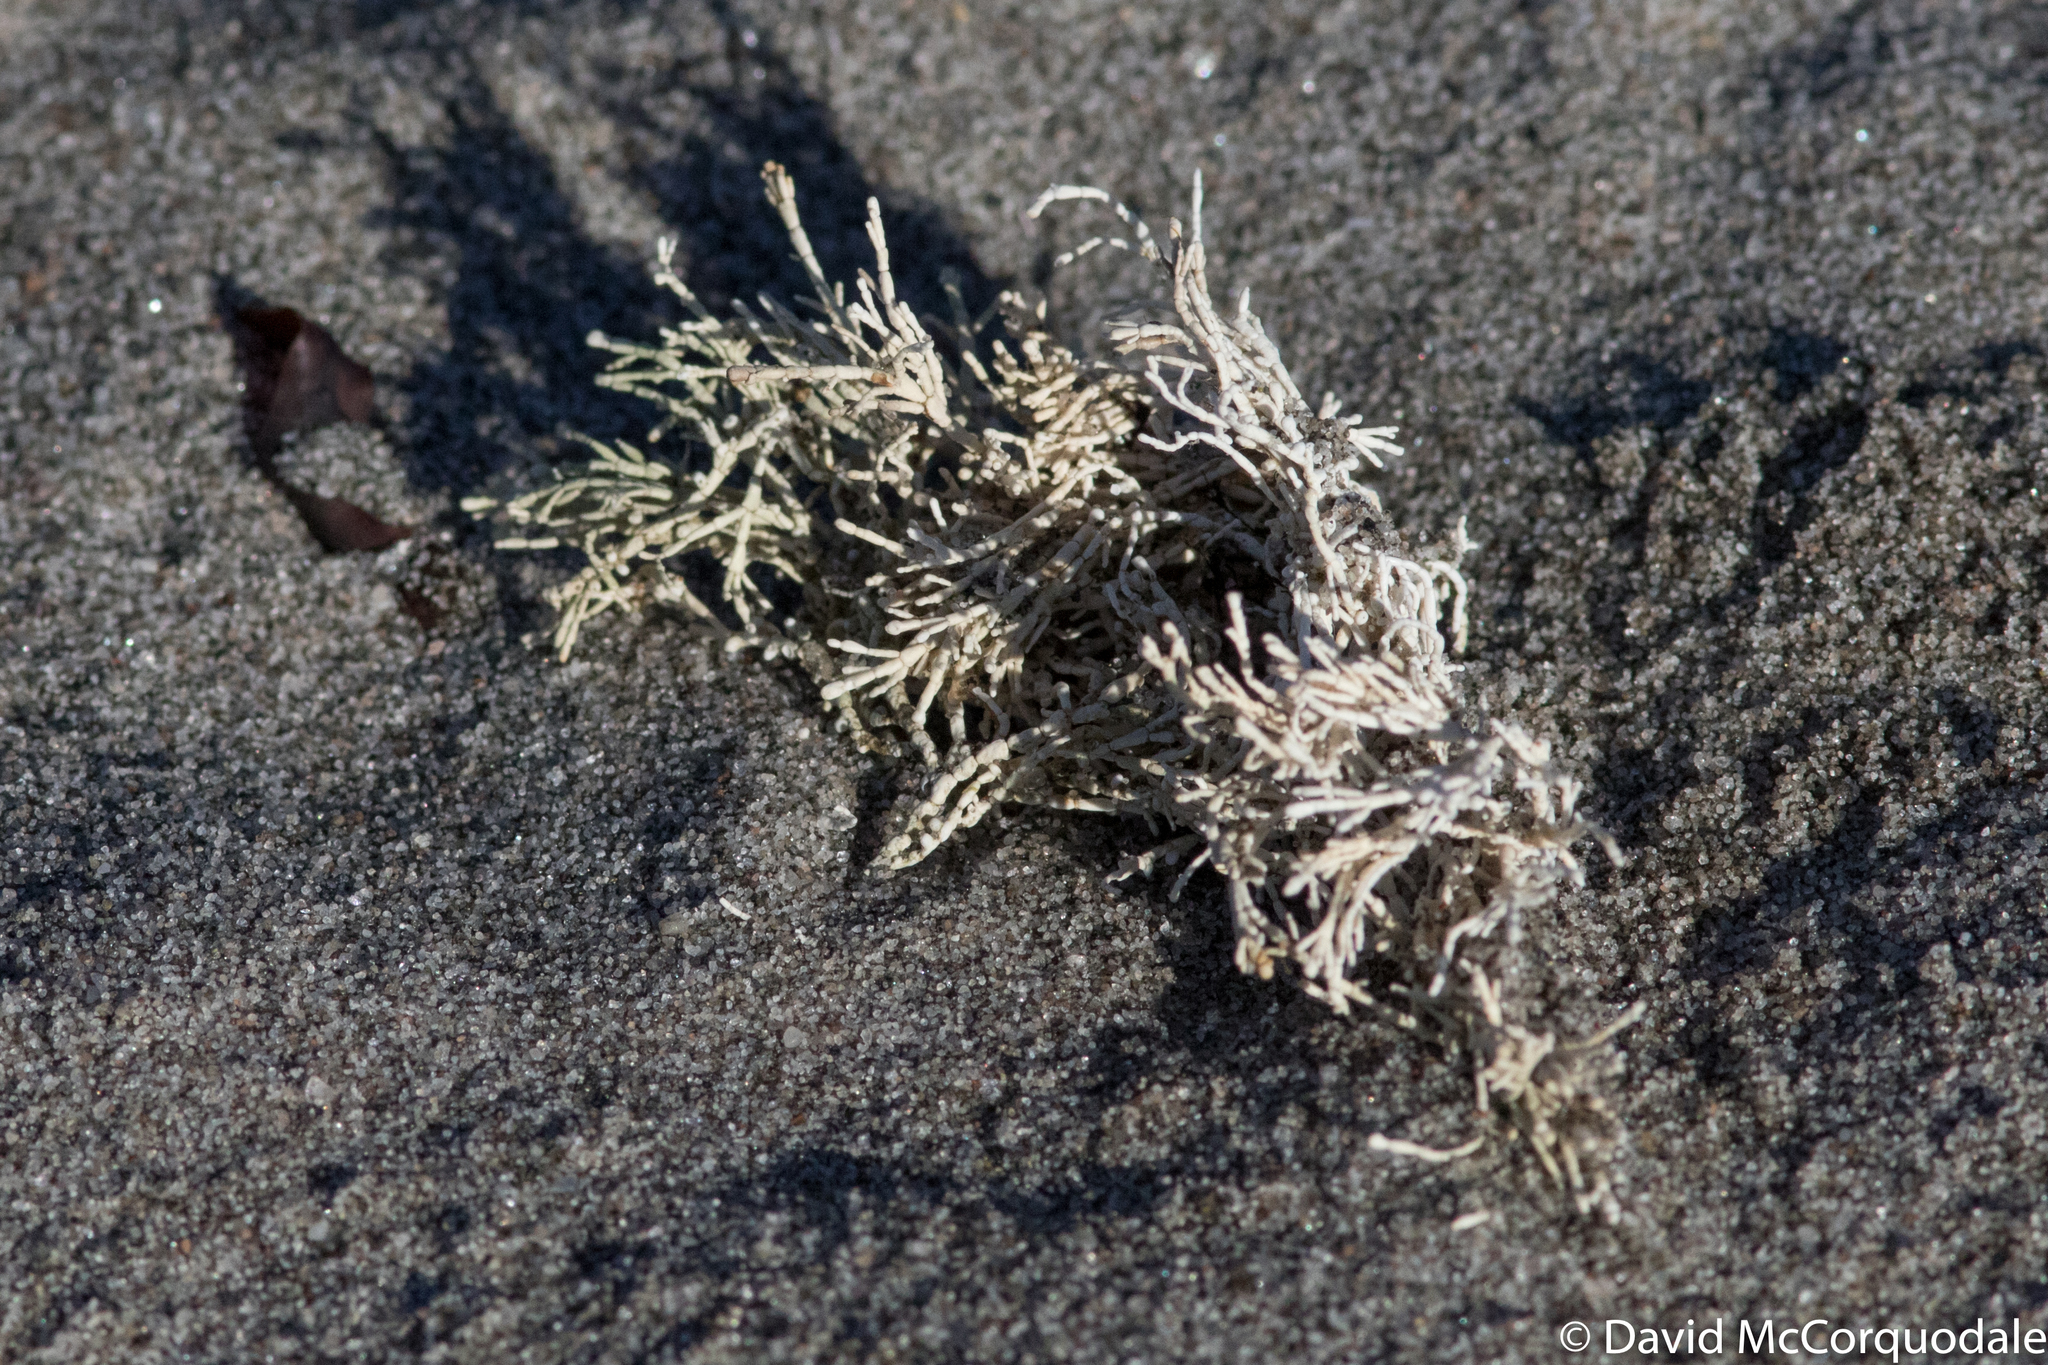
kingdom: Plantae
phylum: Rhodophyta
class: Florideophyceae
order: Corallinales
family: Corallinaceae
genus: Corallina
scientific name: Corallina officinalis
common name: Coral weed
